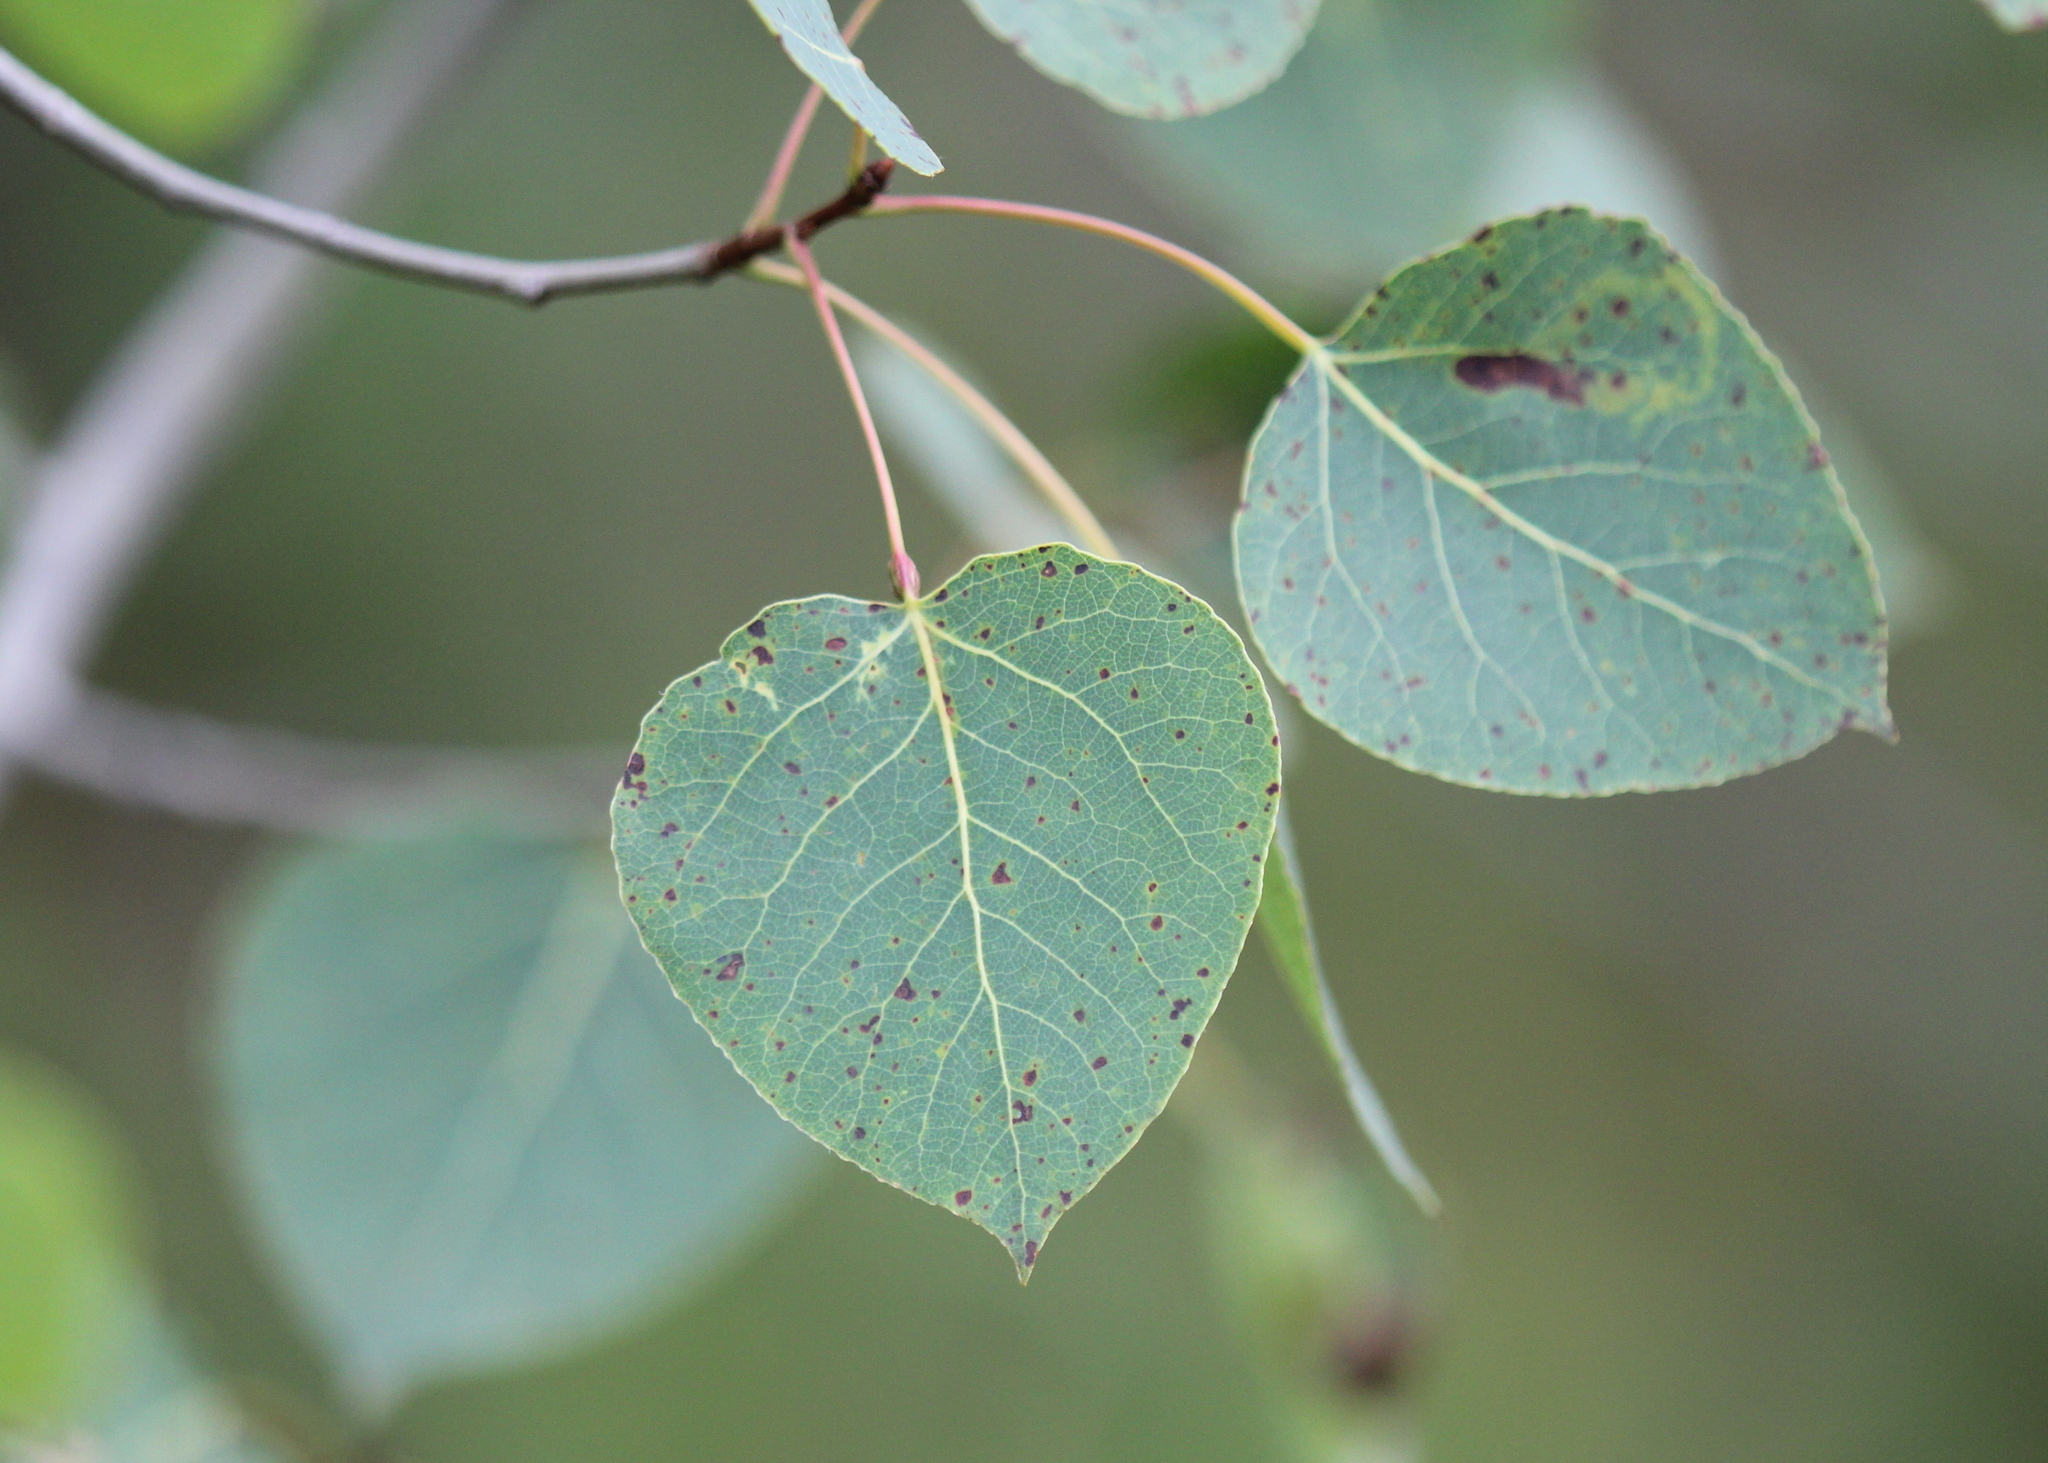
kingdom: Plantae
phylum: Tracheophyta
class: Magnoliopsida
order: Malpighiales
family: Salicaceae
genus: Populus
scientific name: Populus tremuloides
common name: Quaking aspen
